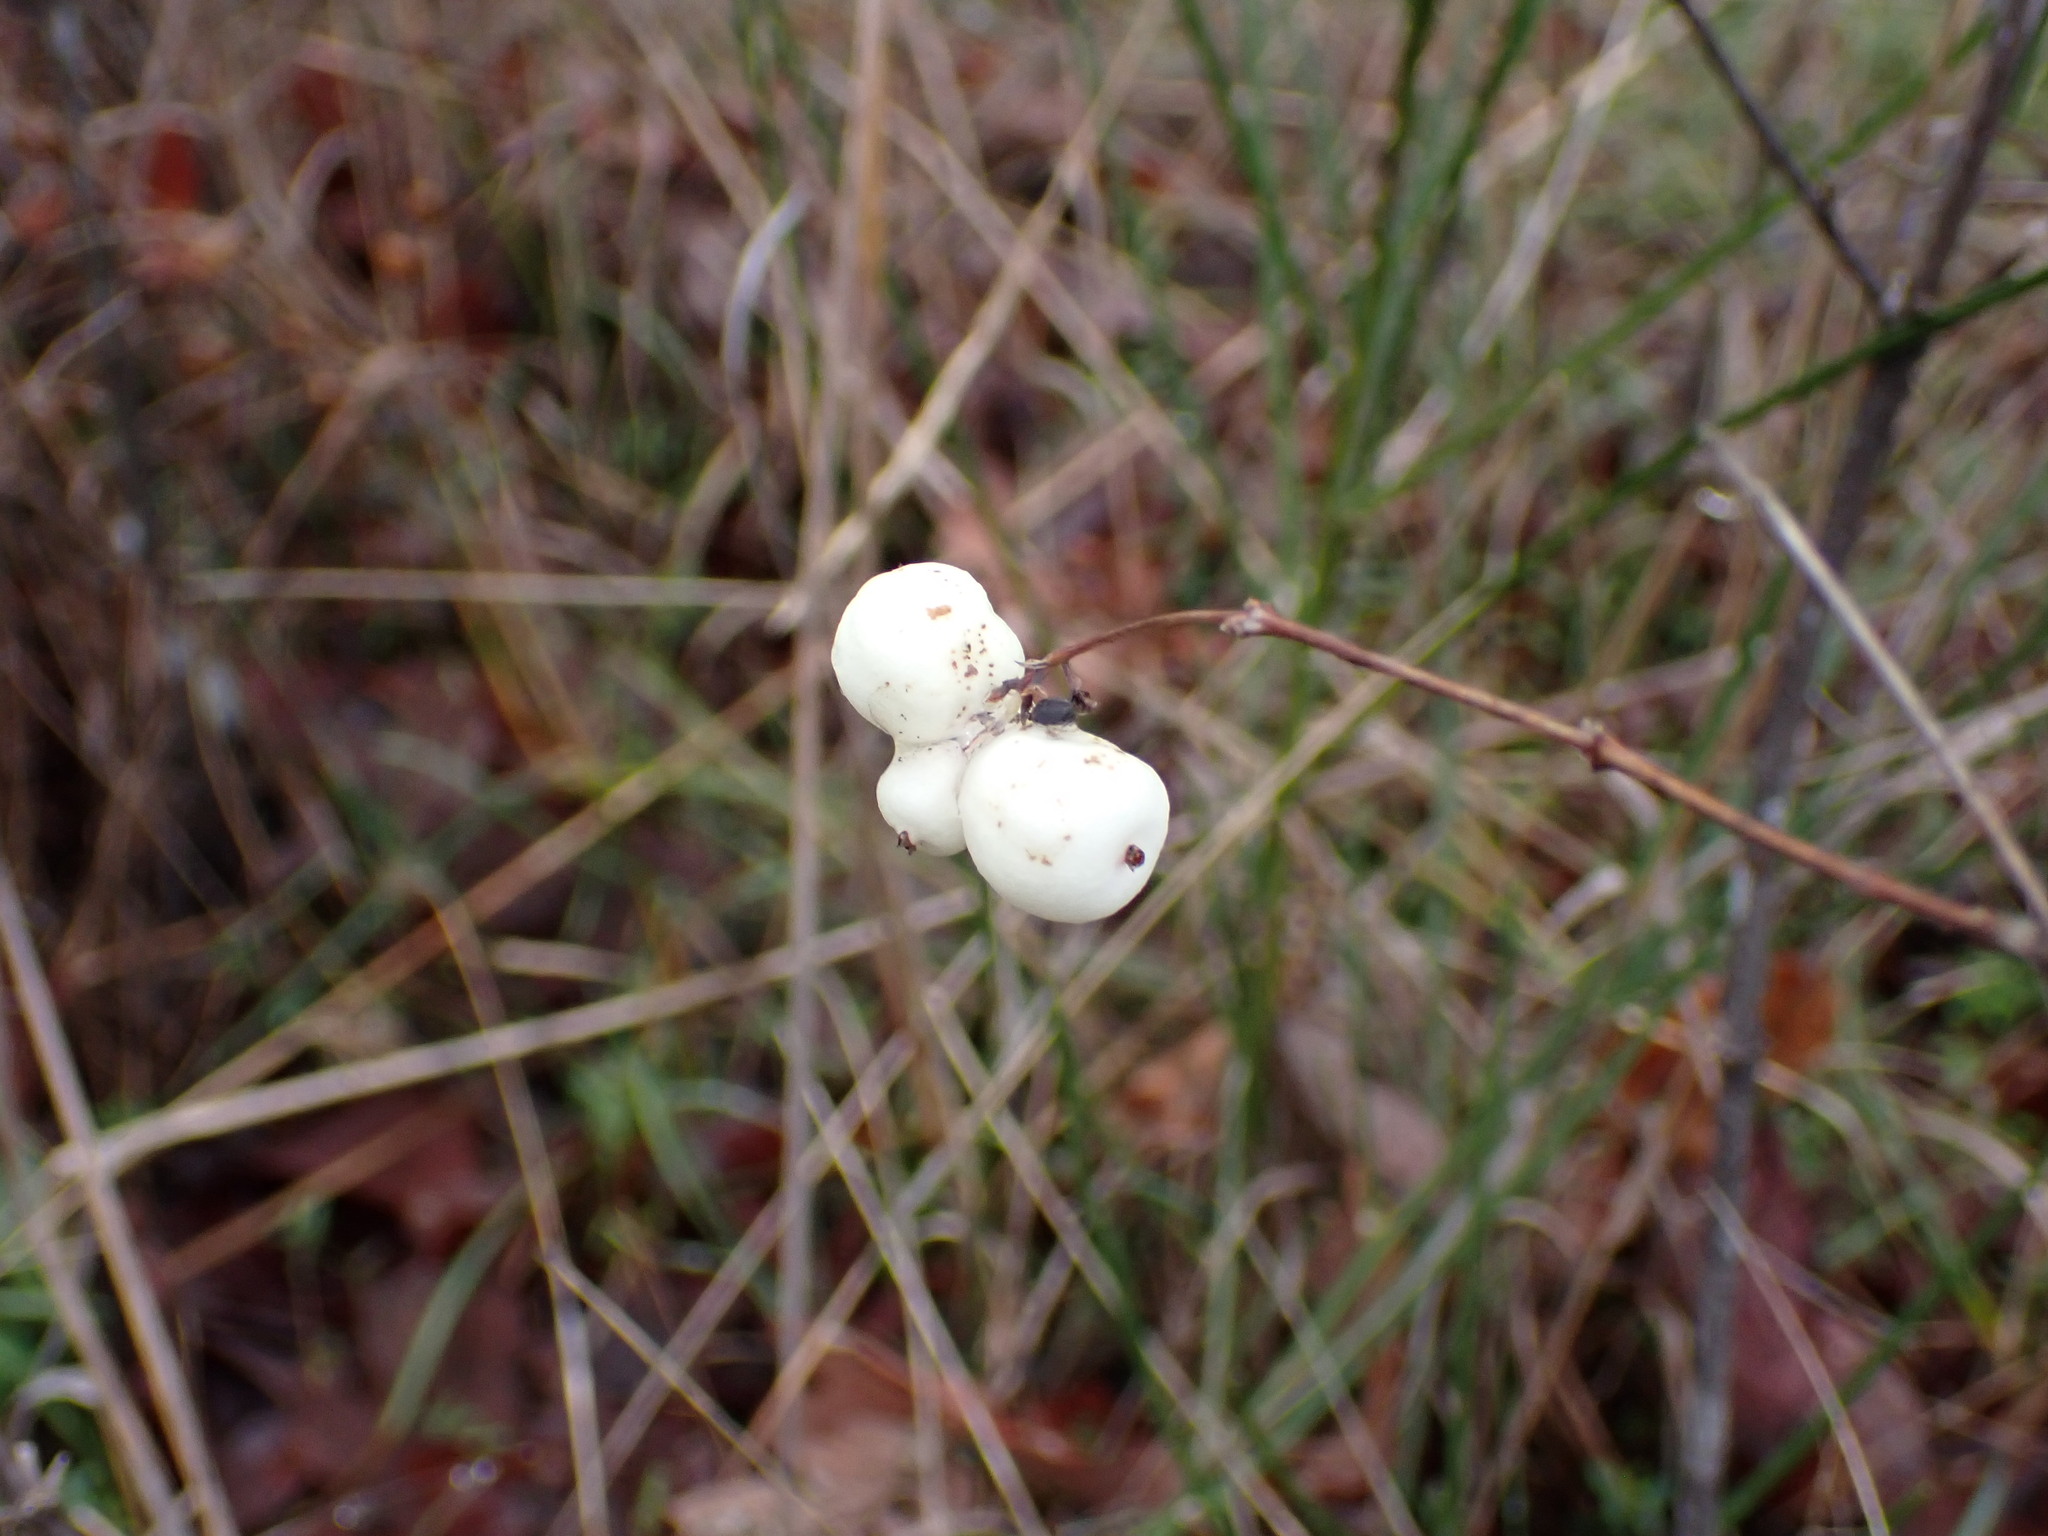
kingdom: Plantae
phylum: Tracheophyta
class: Magnoliopsida
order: Dipsacales
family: Caprifoliaceae
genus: Symphoricarpos
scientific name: Symphoricarpos albus
